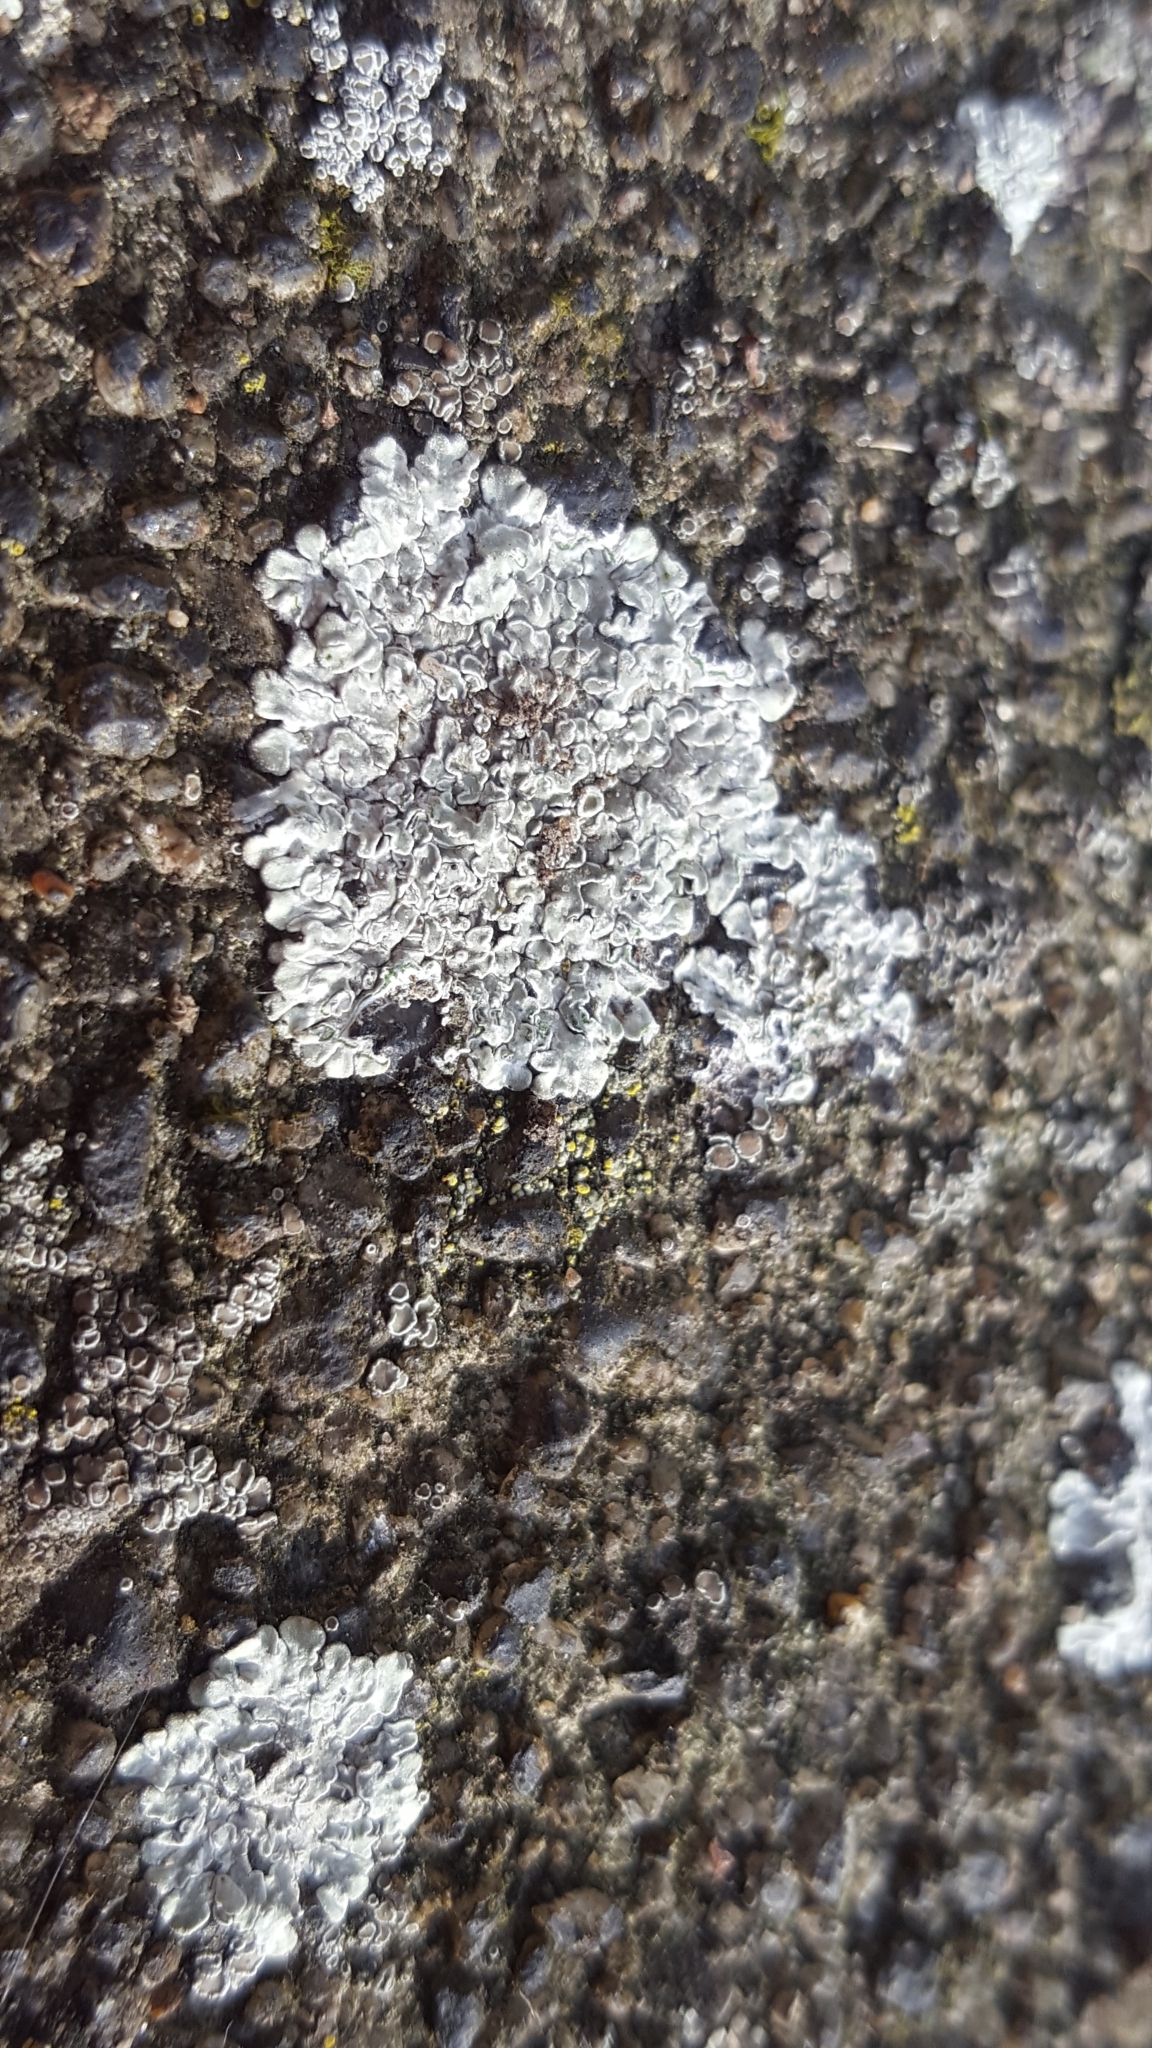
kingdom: Fungi
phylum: Ascomycota
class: Lecanoromycetes
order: Lecanorales
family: Lecanoraceae
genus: Protoparmeliopsis
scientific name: Protoparmeliopsis muralis
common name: Stonewall rim lichen
